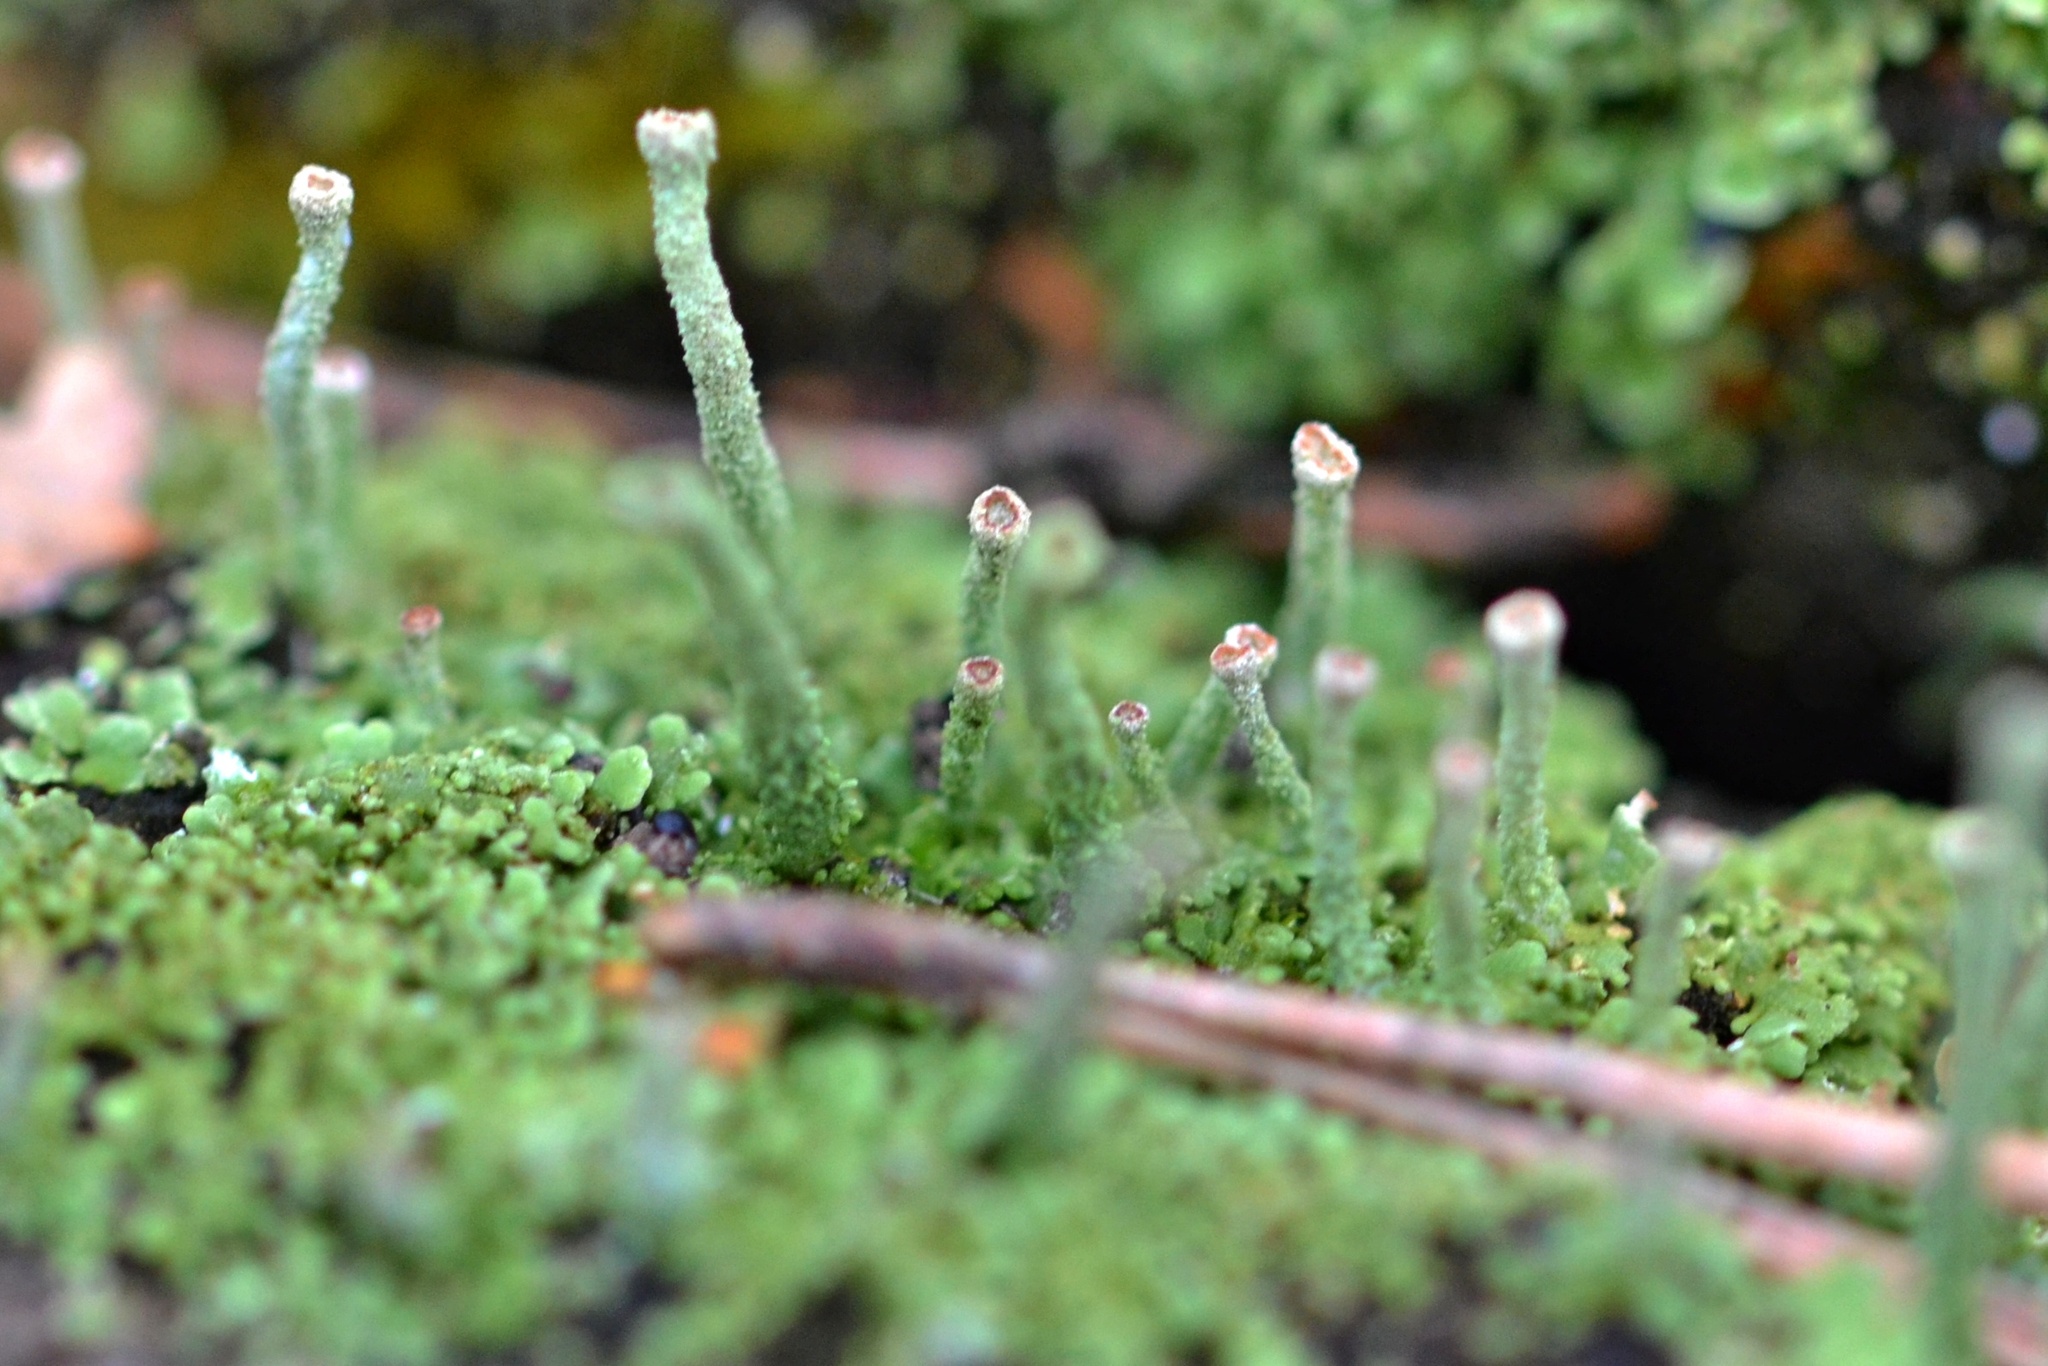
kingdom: Fungi
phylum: Ascomycota
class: Lecanoromycetes
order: Lecanorales
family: Cladoniaceae
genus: Cladonia
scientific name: Cladonia fimbriata
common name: Powdered trumpet lichen
